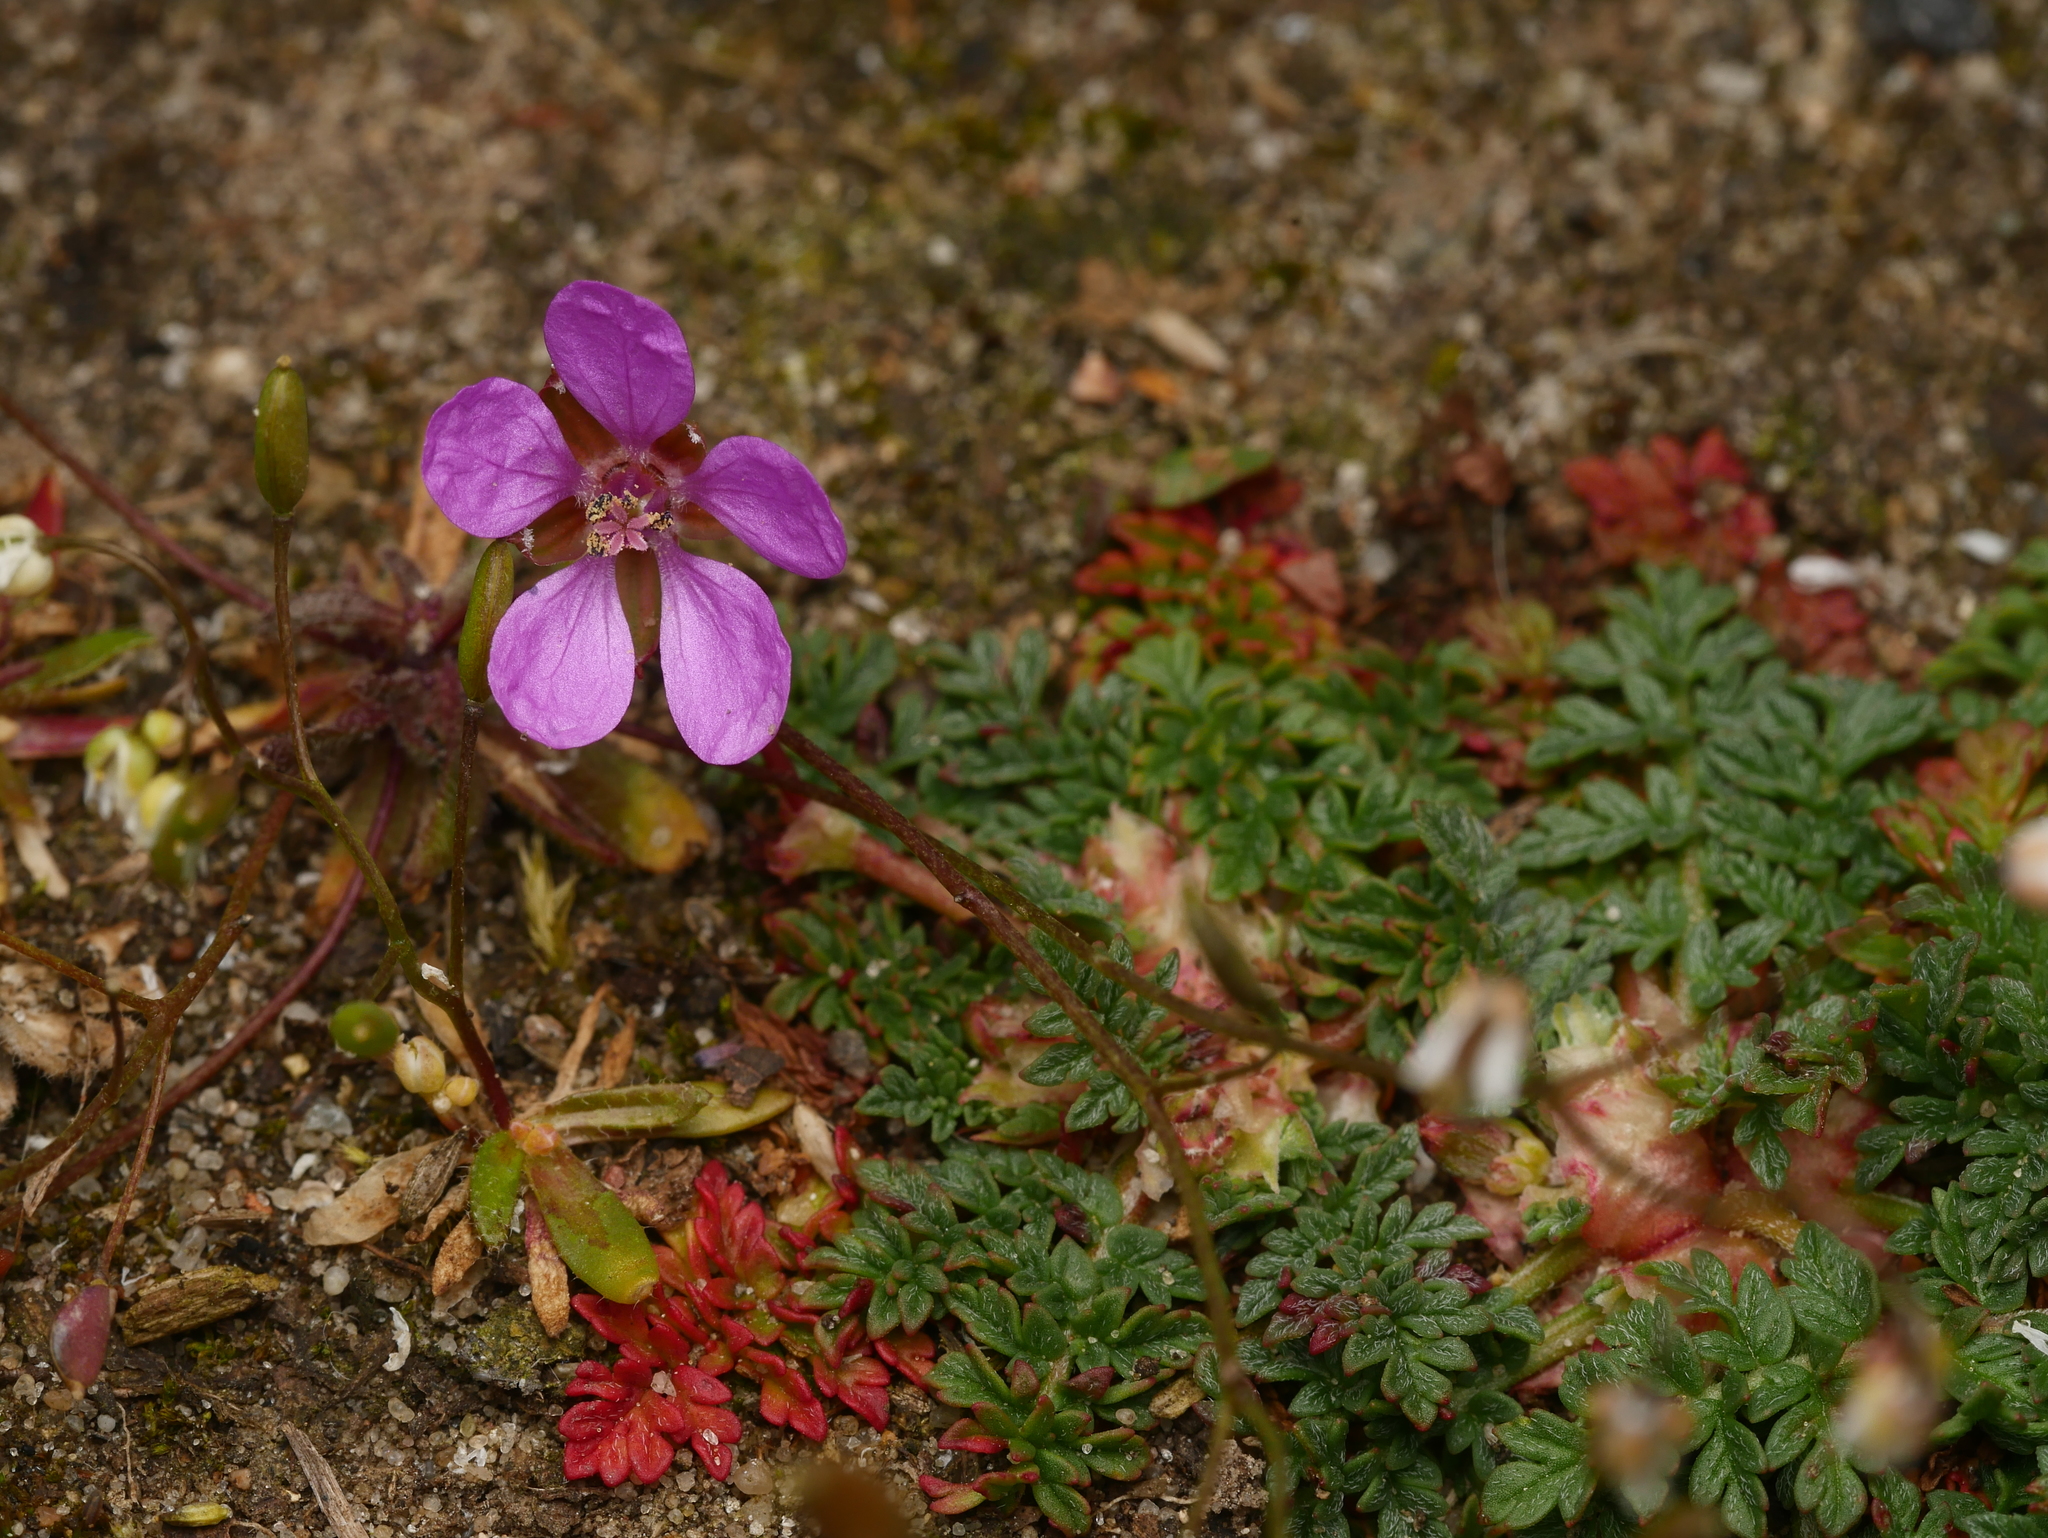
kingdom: Plantae
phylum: Tracheophyta
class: Magnoliopsida
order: Geraniales
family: Geraniaceae
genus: Erodium
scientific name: Erodium cicutarium
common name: Common stork's-bill
